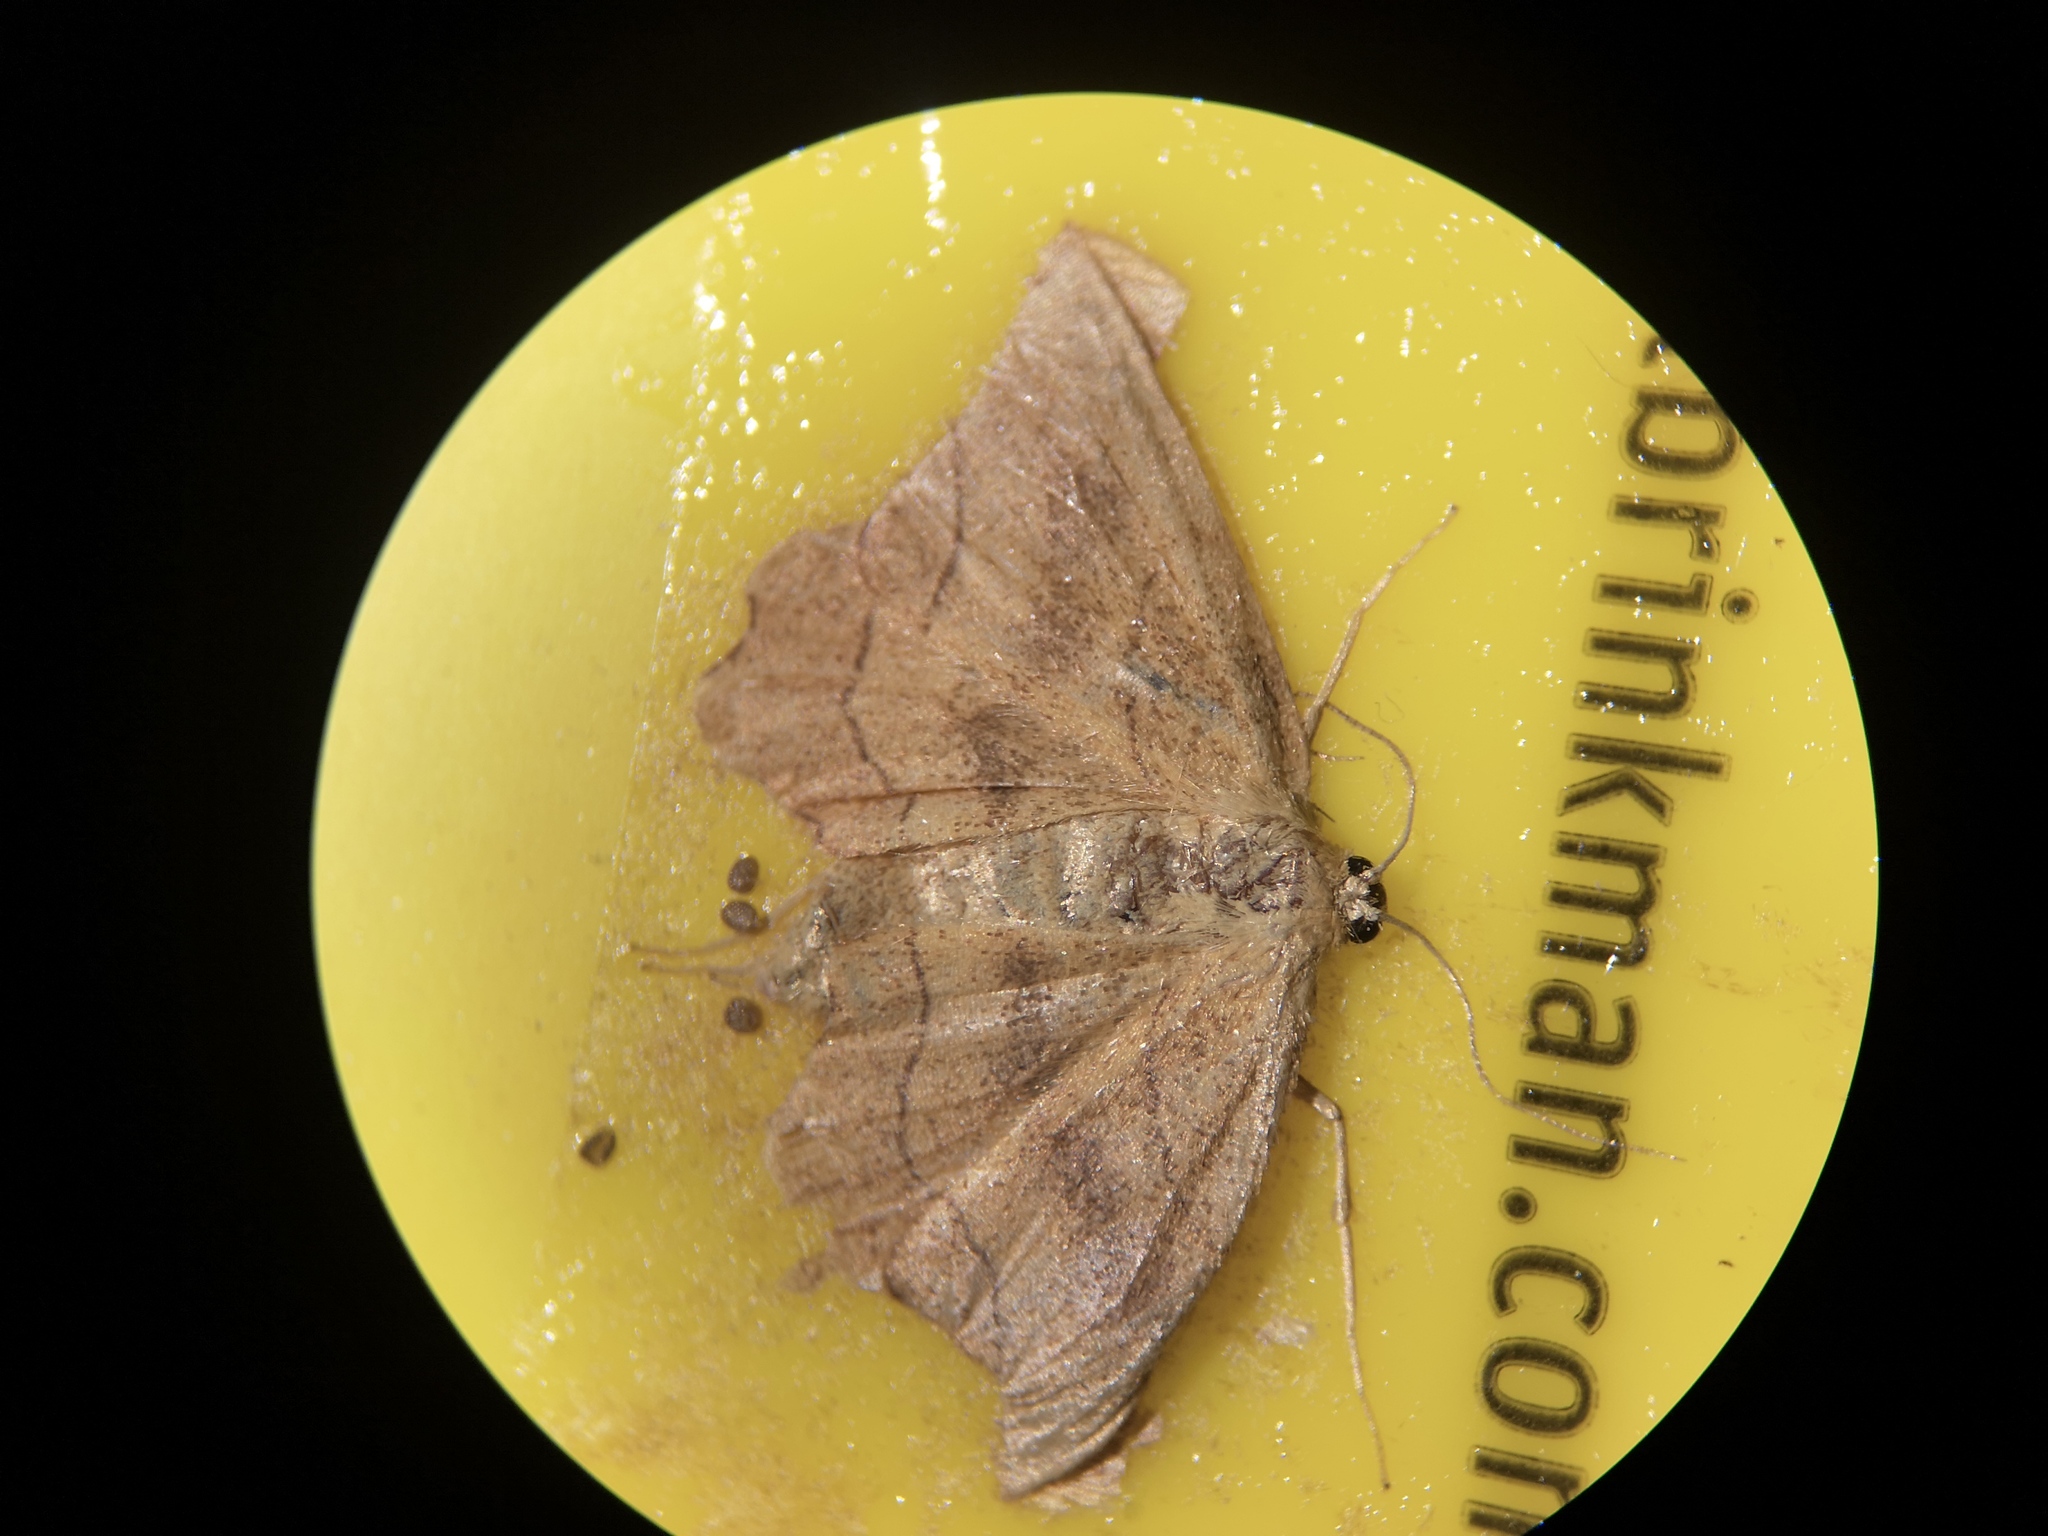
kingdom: Animalia
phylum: Arthropoda
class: Insecta
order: Lepidoptera
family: Geometridae
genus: Idaea
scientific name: Idaea emarginata
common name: Small scallop
